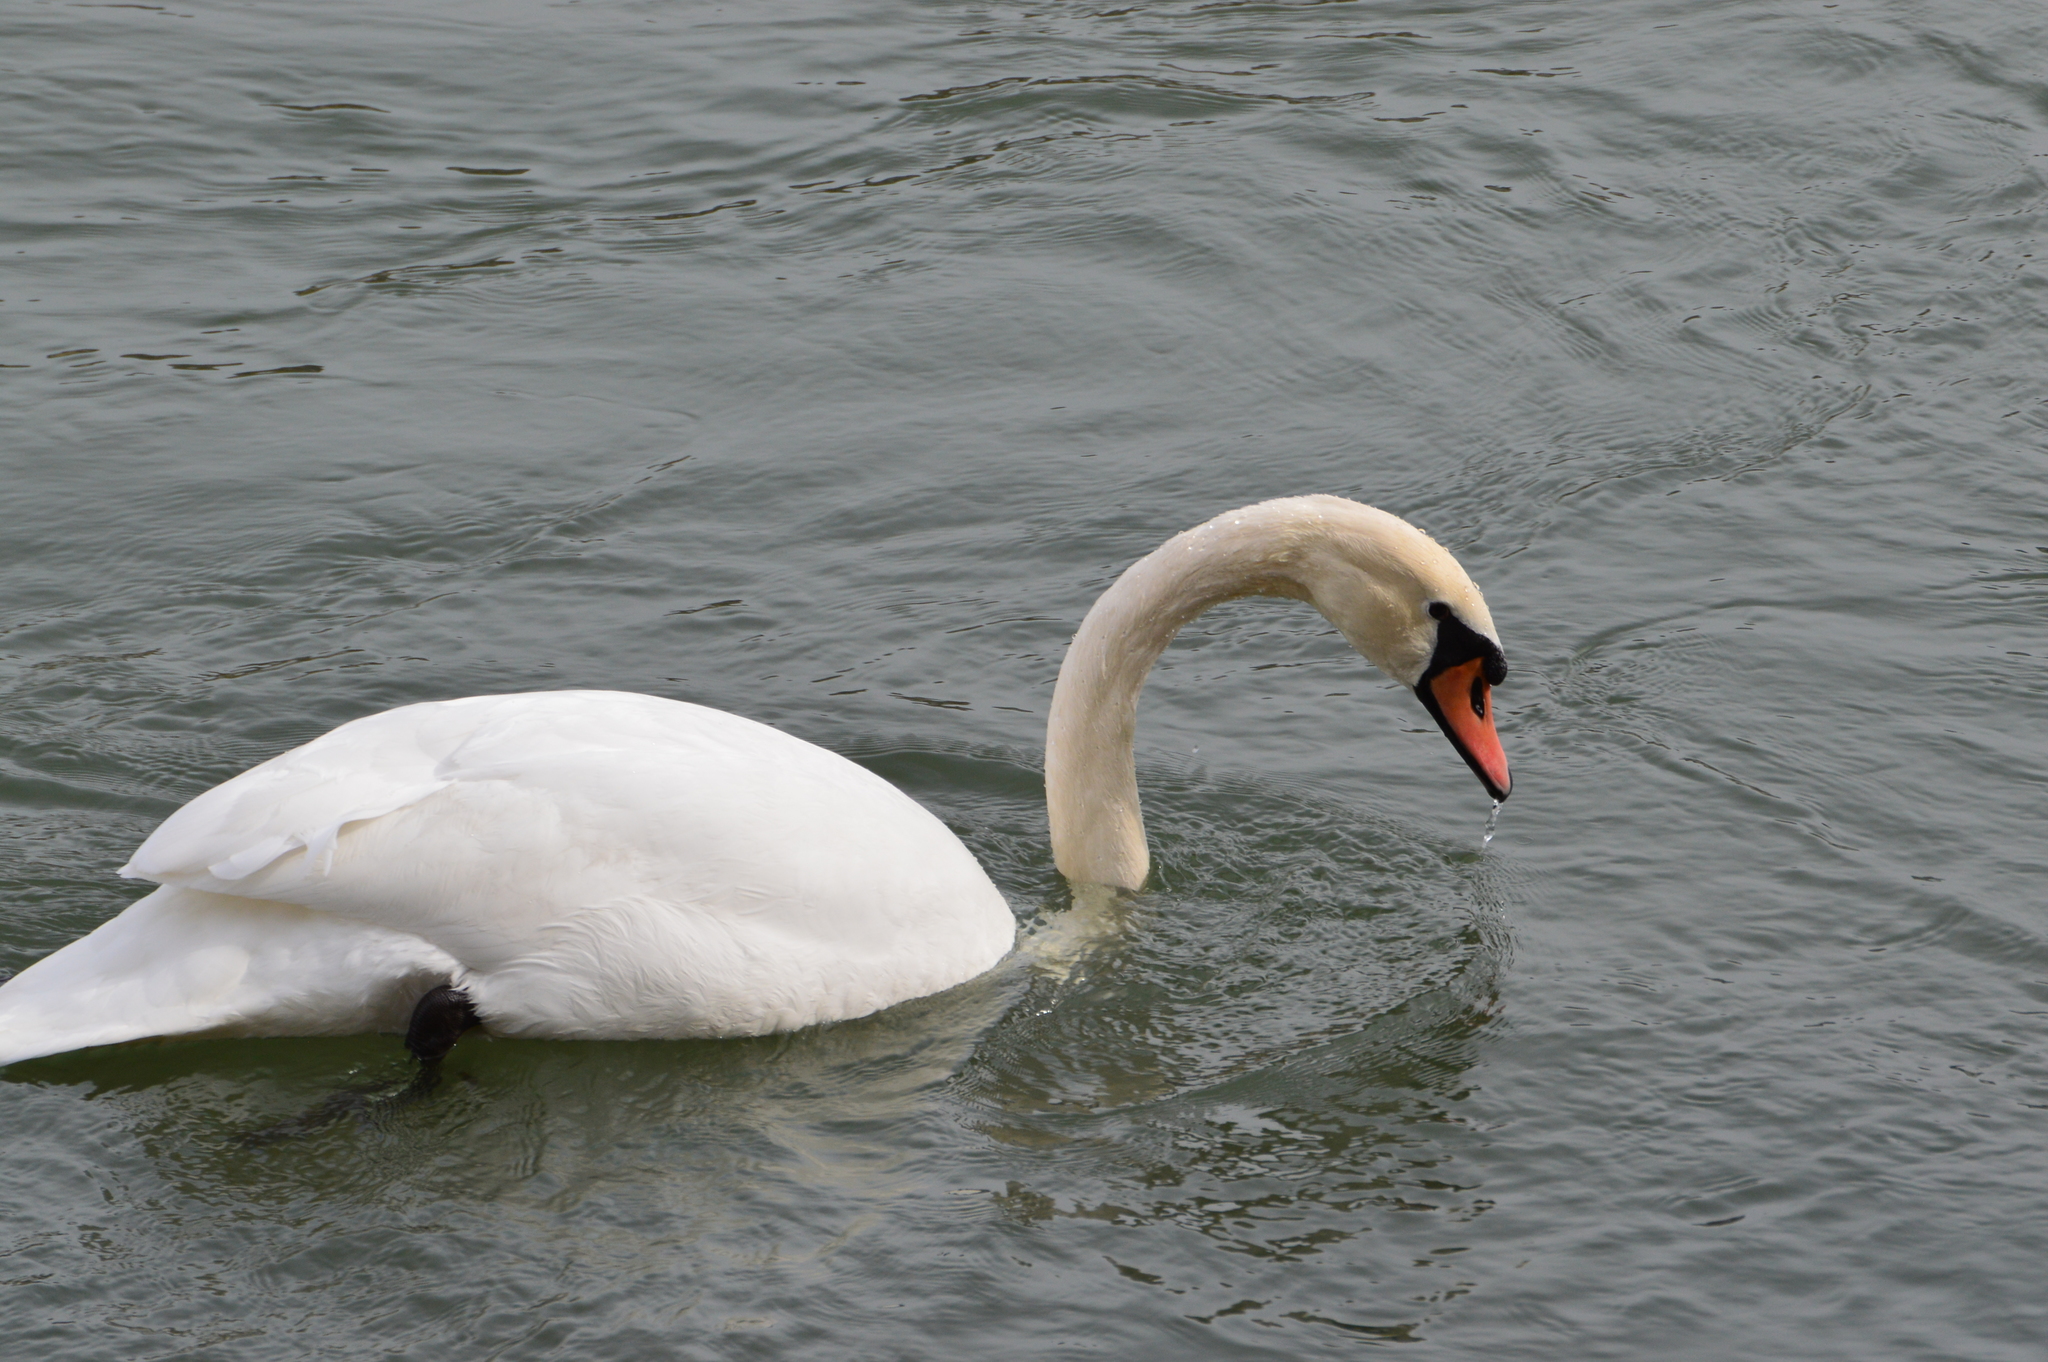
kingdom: Animalia
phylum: Chordata
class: Aves
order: Anseriformes
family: Anatidae
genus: Cygnus
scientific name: Cygnus olor
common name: Mute swan
